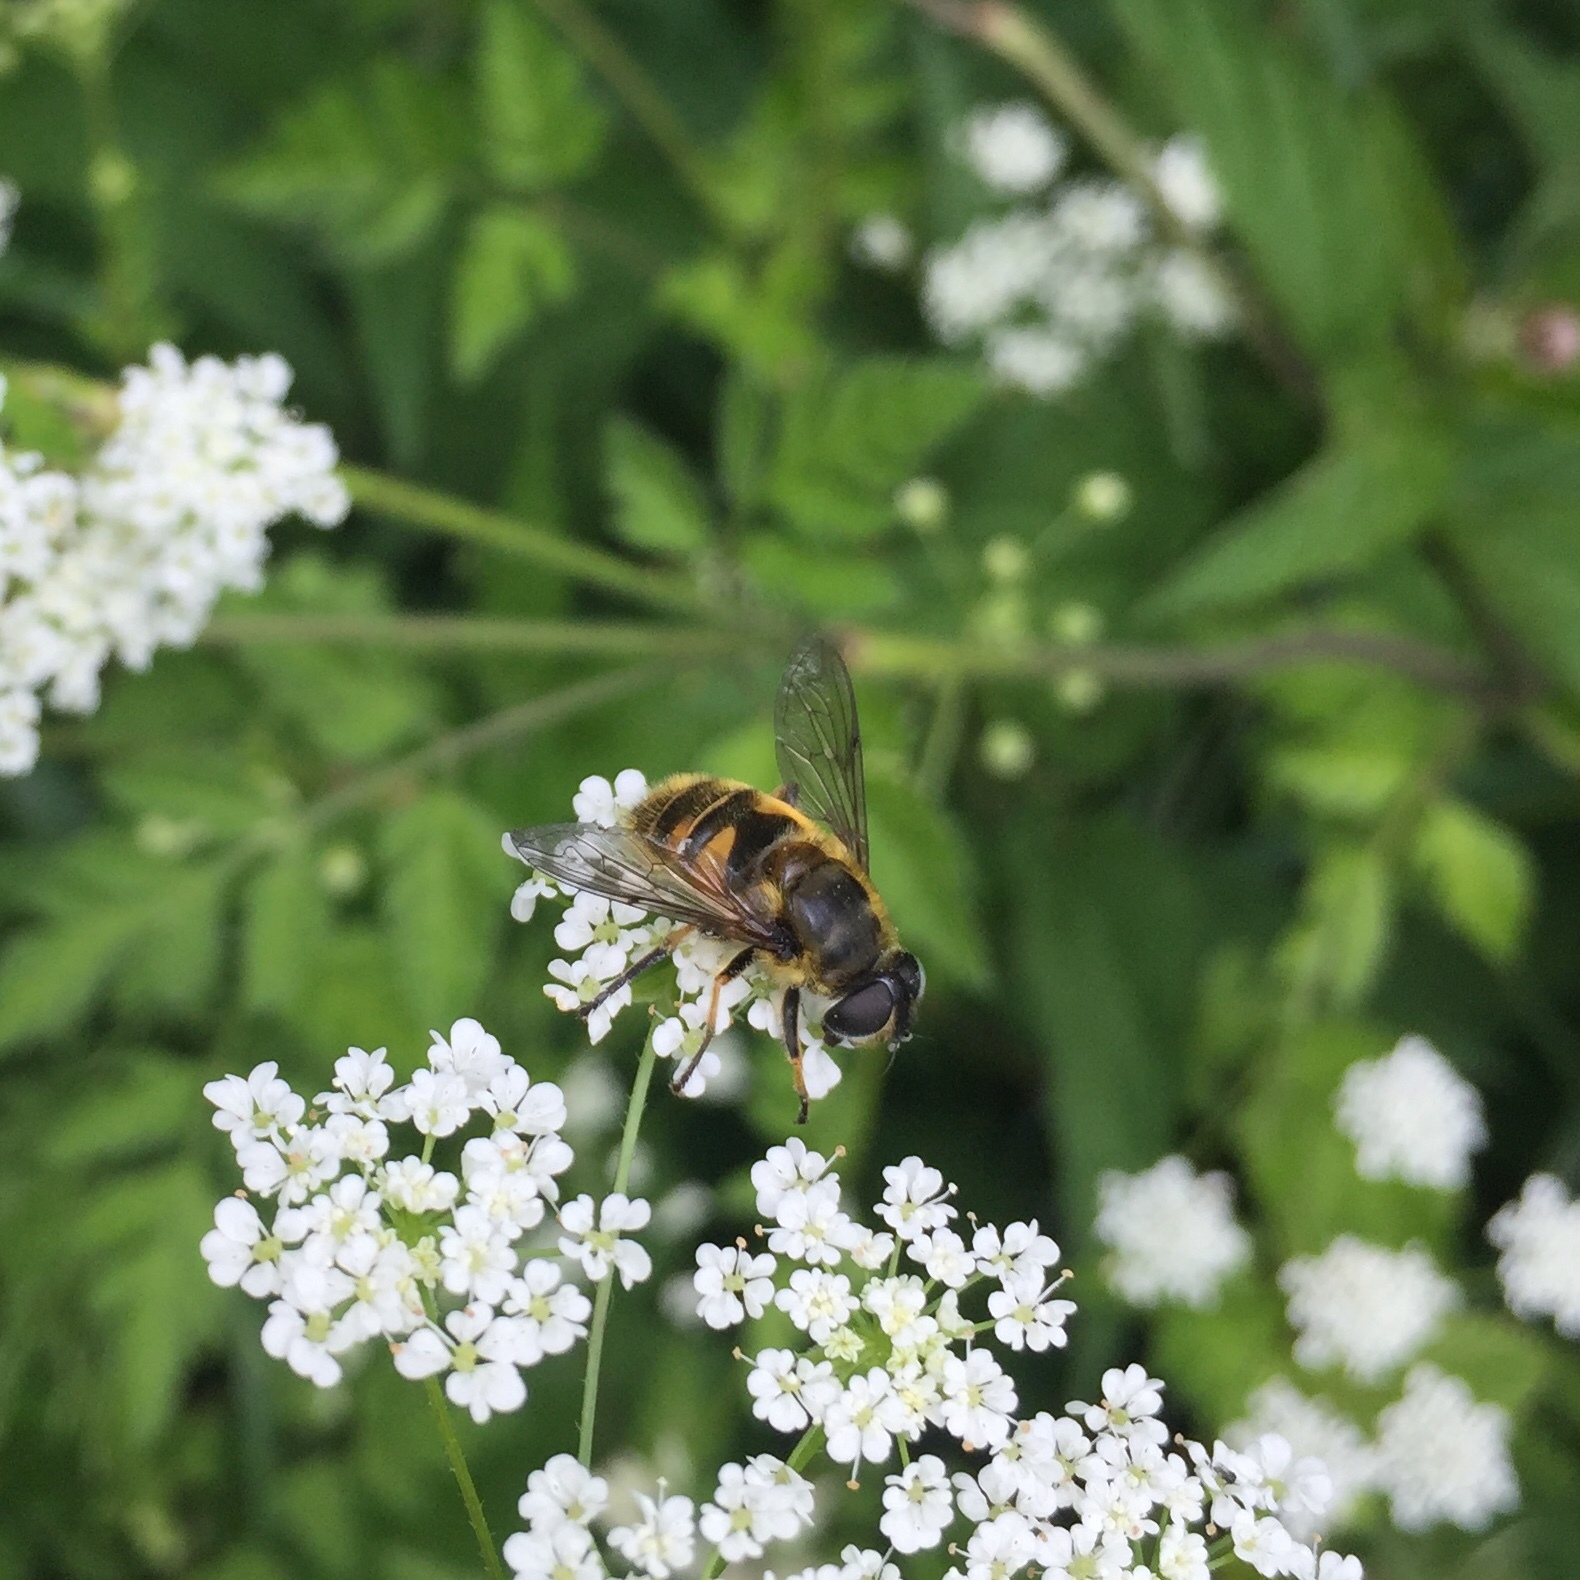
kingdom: Animalia
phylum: Arthropoda
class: Insecta
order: Diptera
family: Syrphidae
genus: Myathropa
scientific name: Myathropa florea
